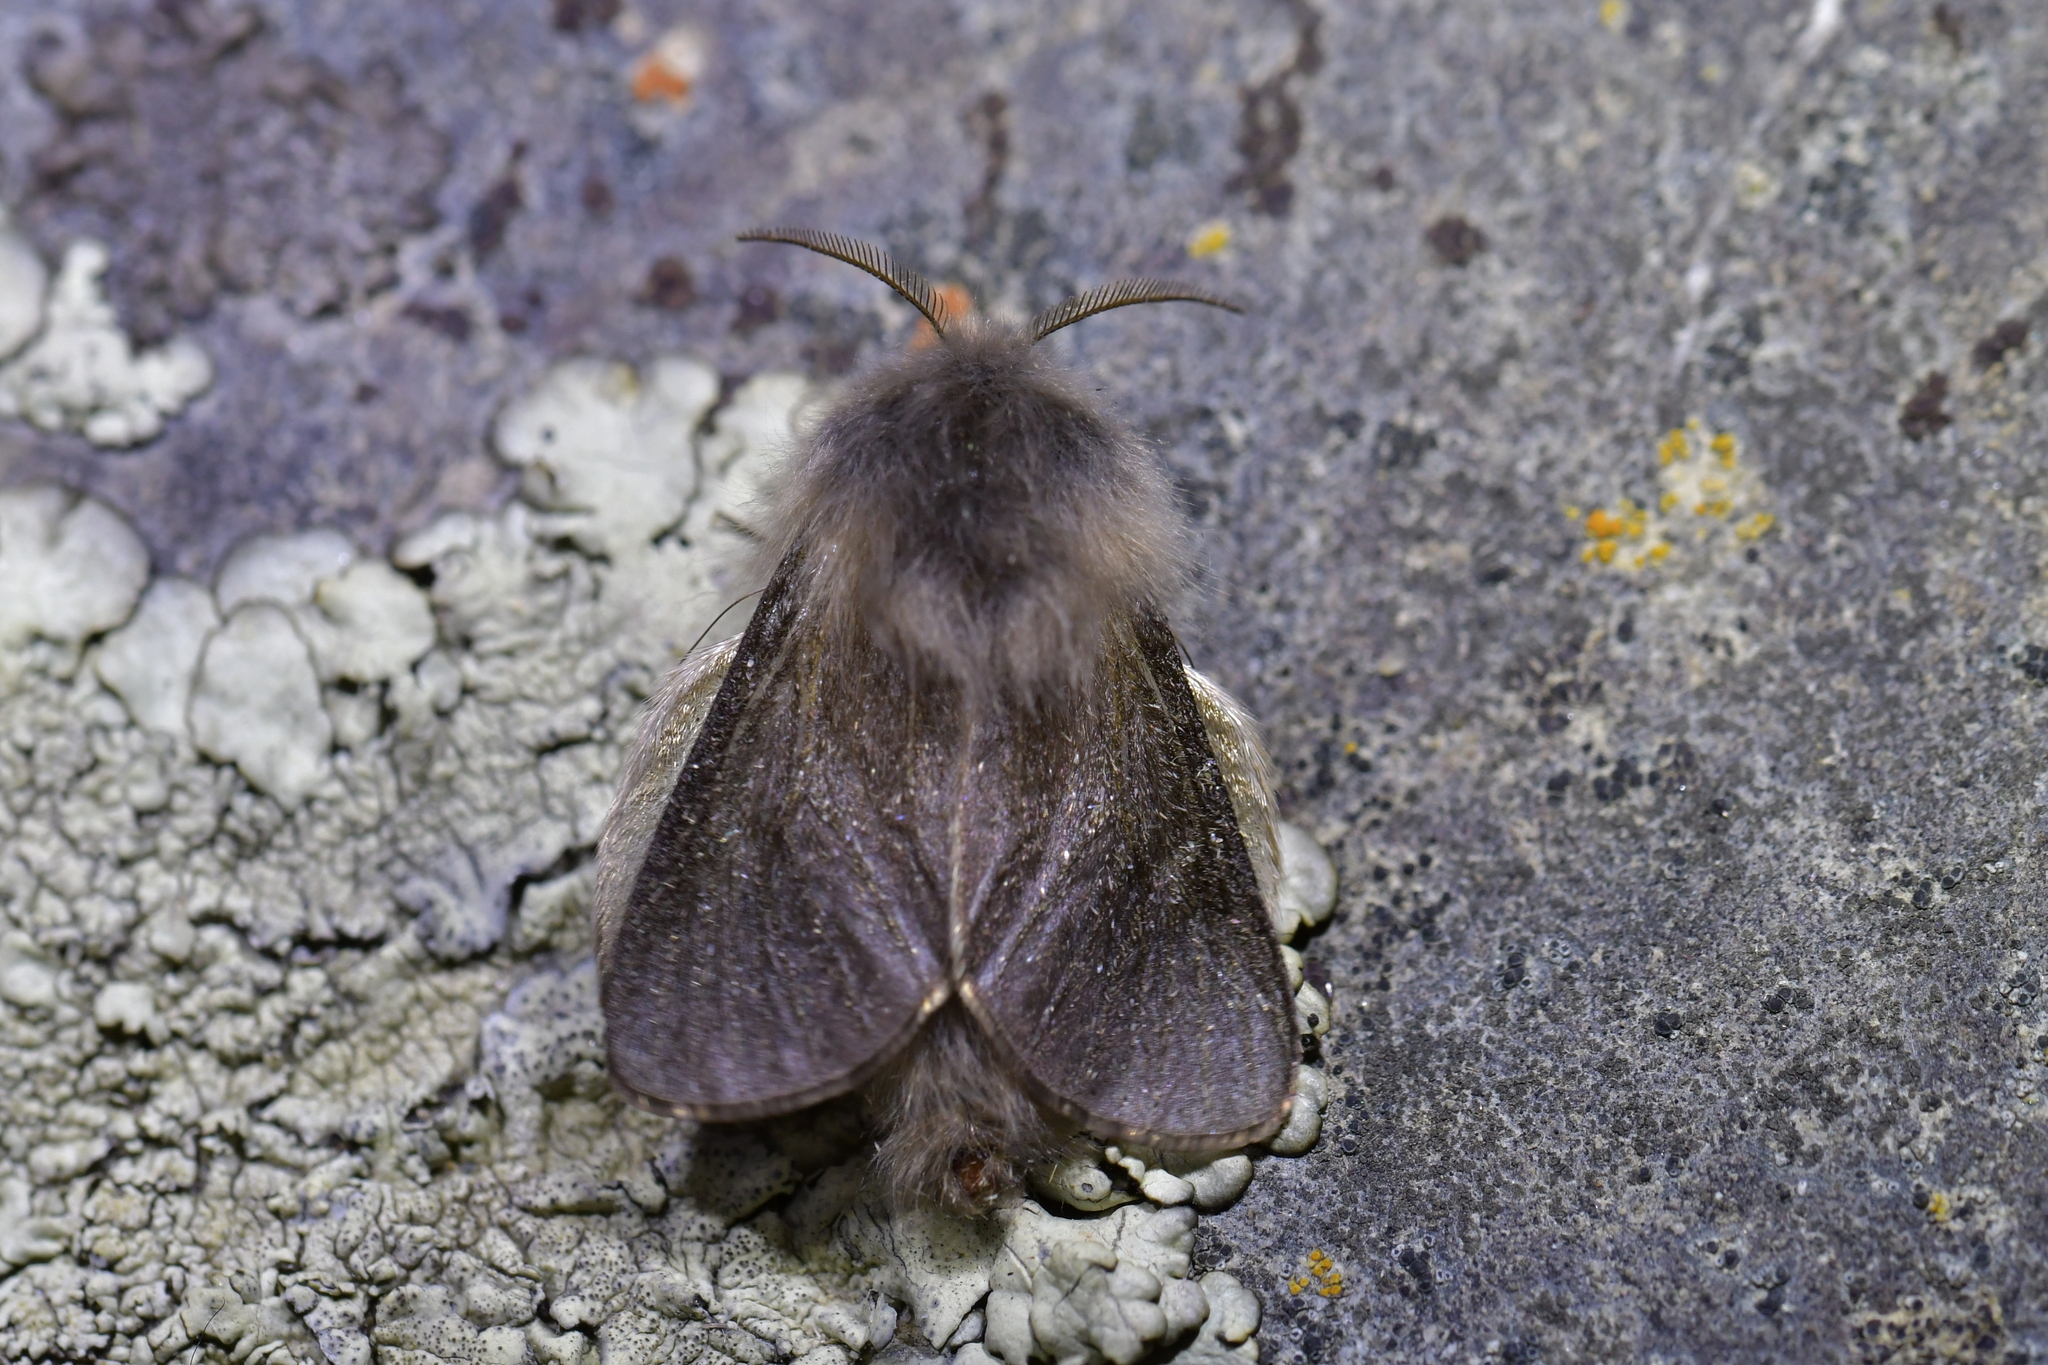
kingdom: Animalia
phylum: Arthropoda
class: Insecta
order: Lepidoptera
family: Psychidae
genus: Orophora
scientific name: Orophora unicolor
